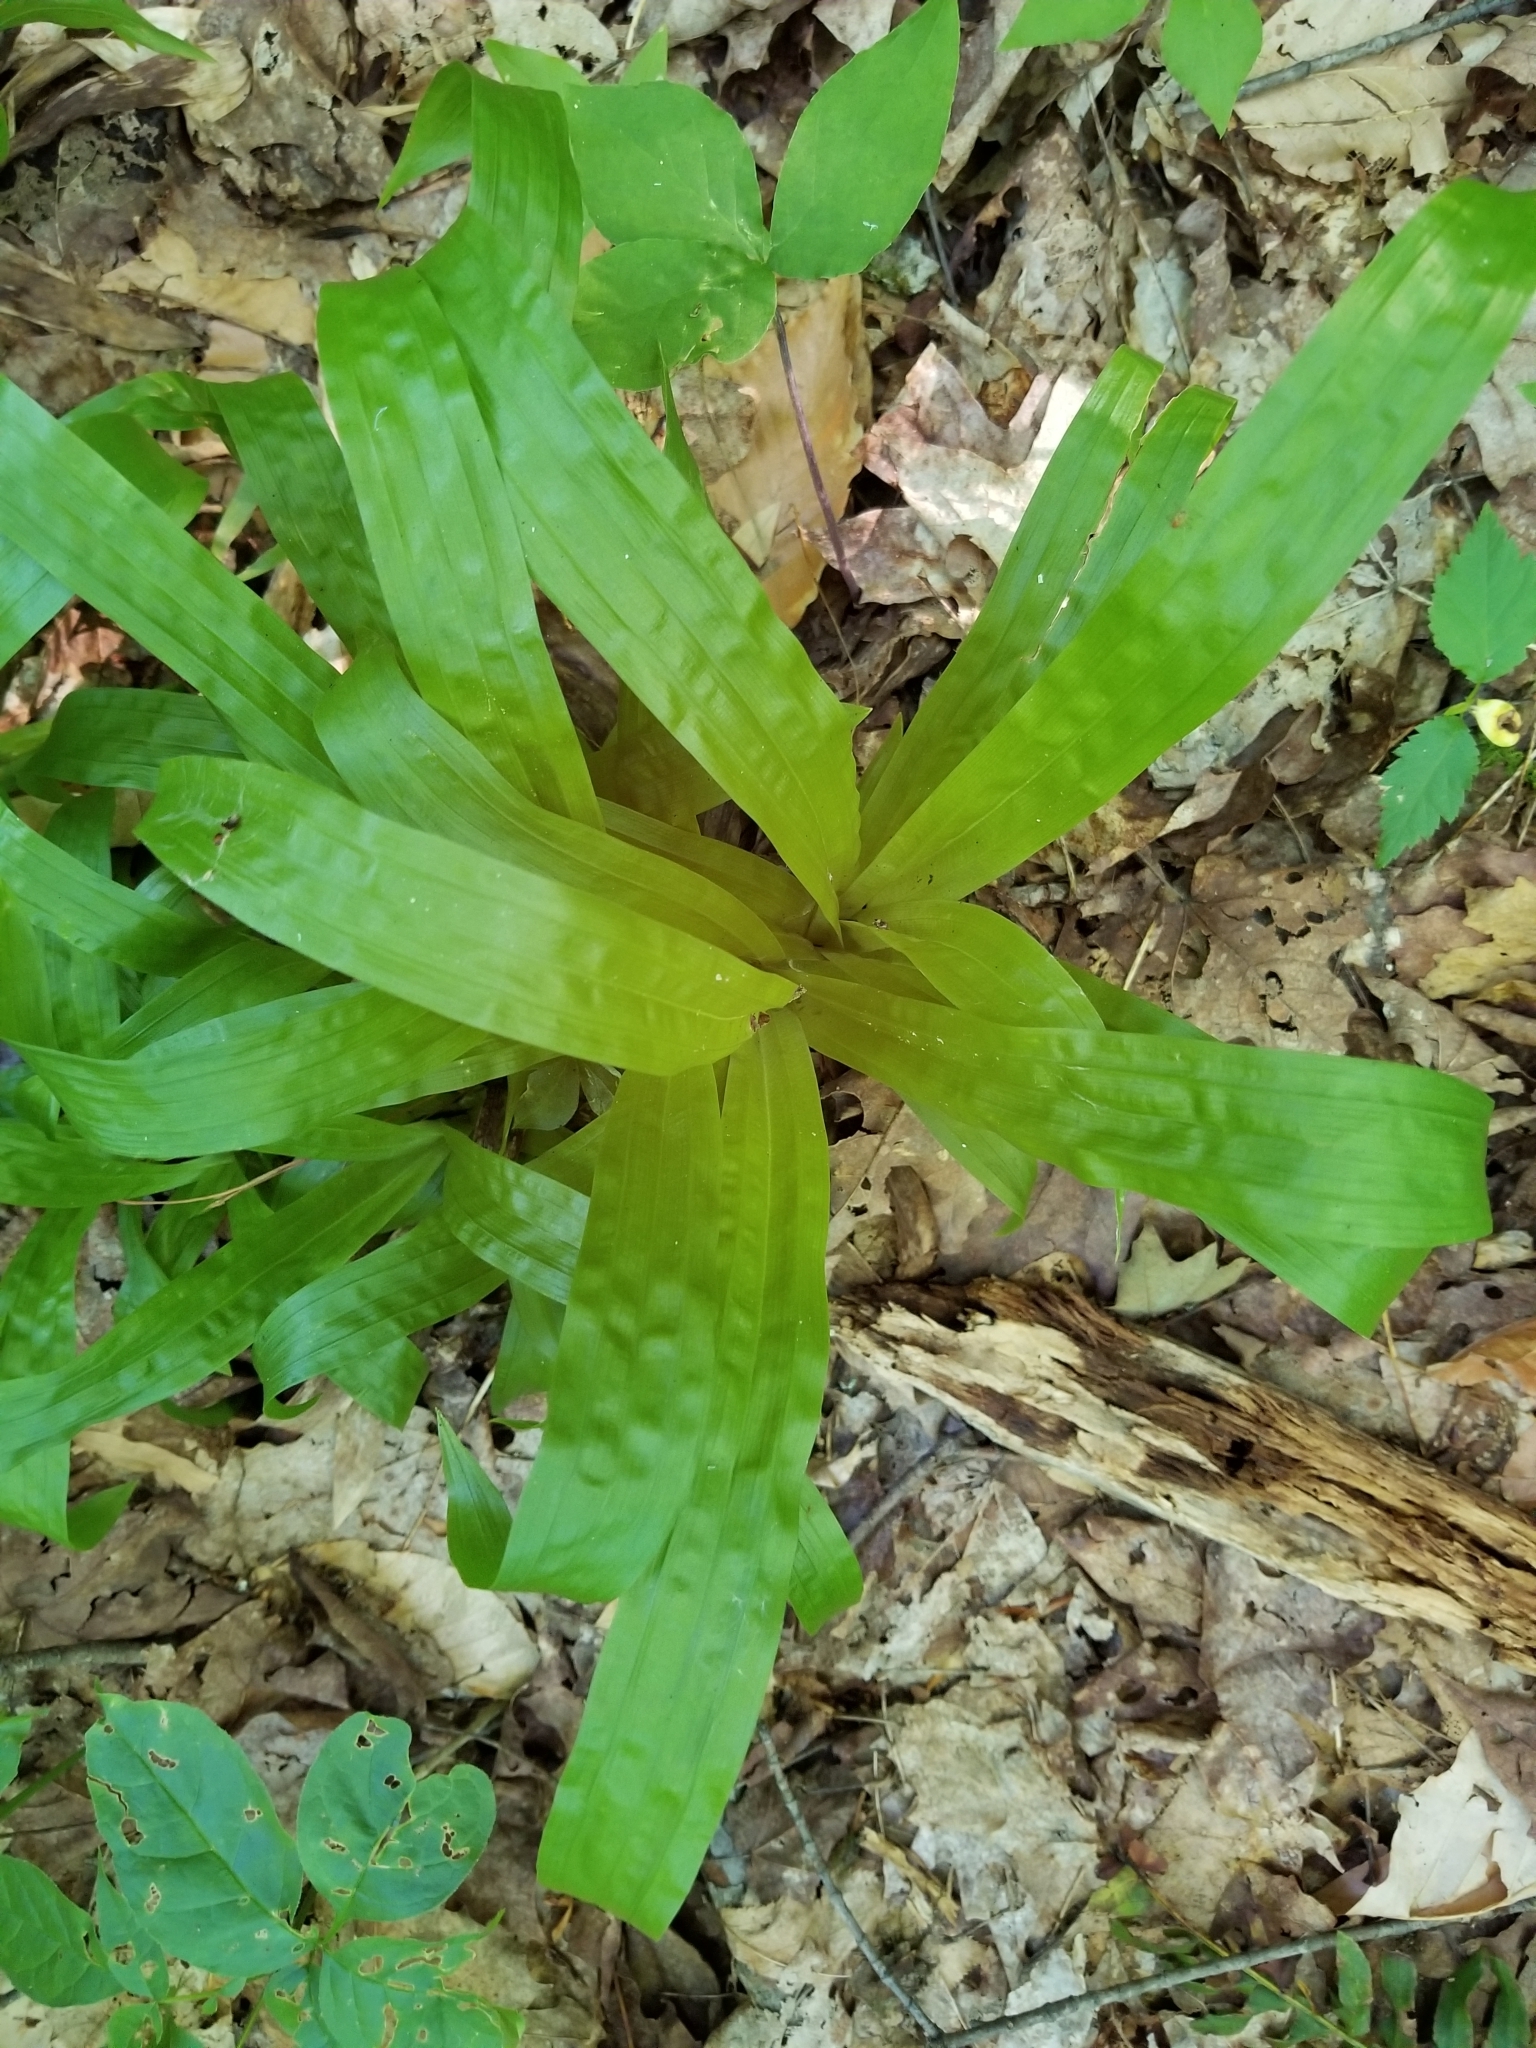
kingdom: Plantae
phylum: Tracheophyta
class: Liliopsida
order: Poales
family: Cyperaceae
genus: Carex
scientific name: Carex plantaginea
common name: Plantain-leaved sedge
